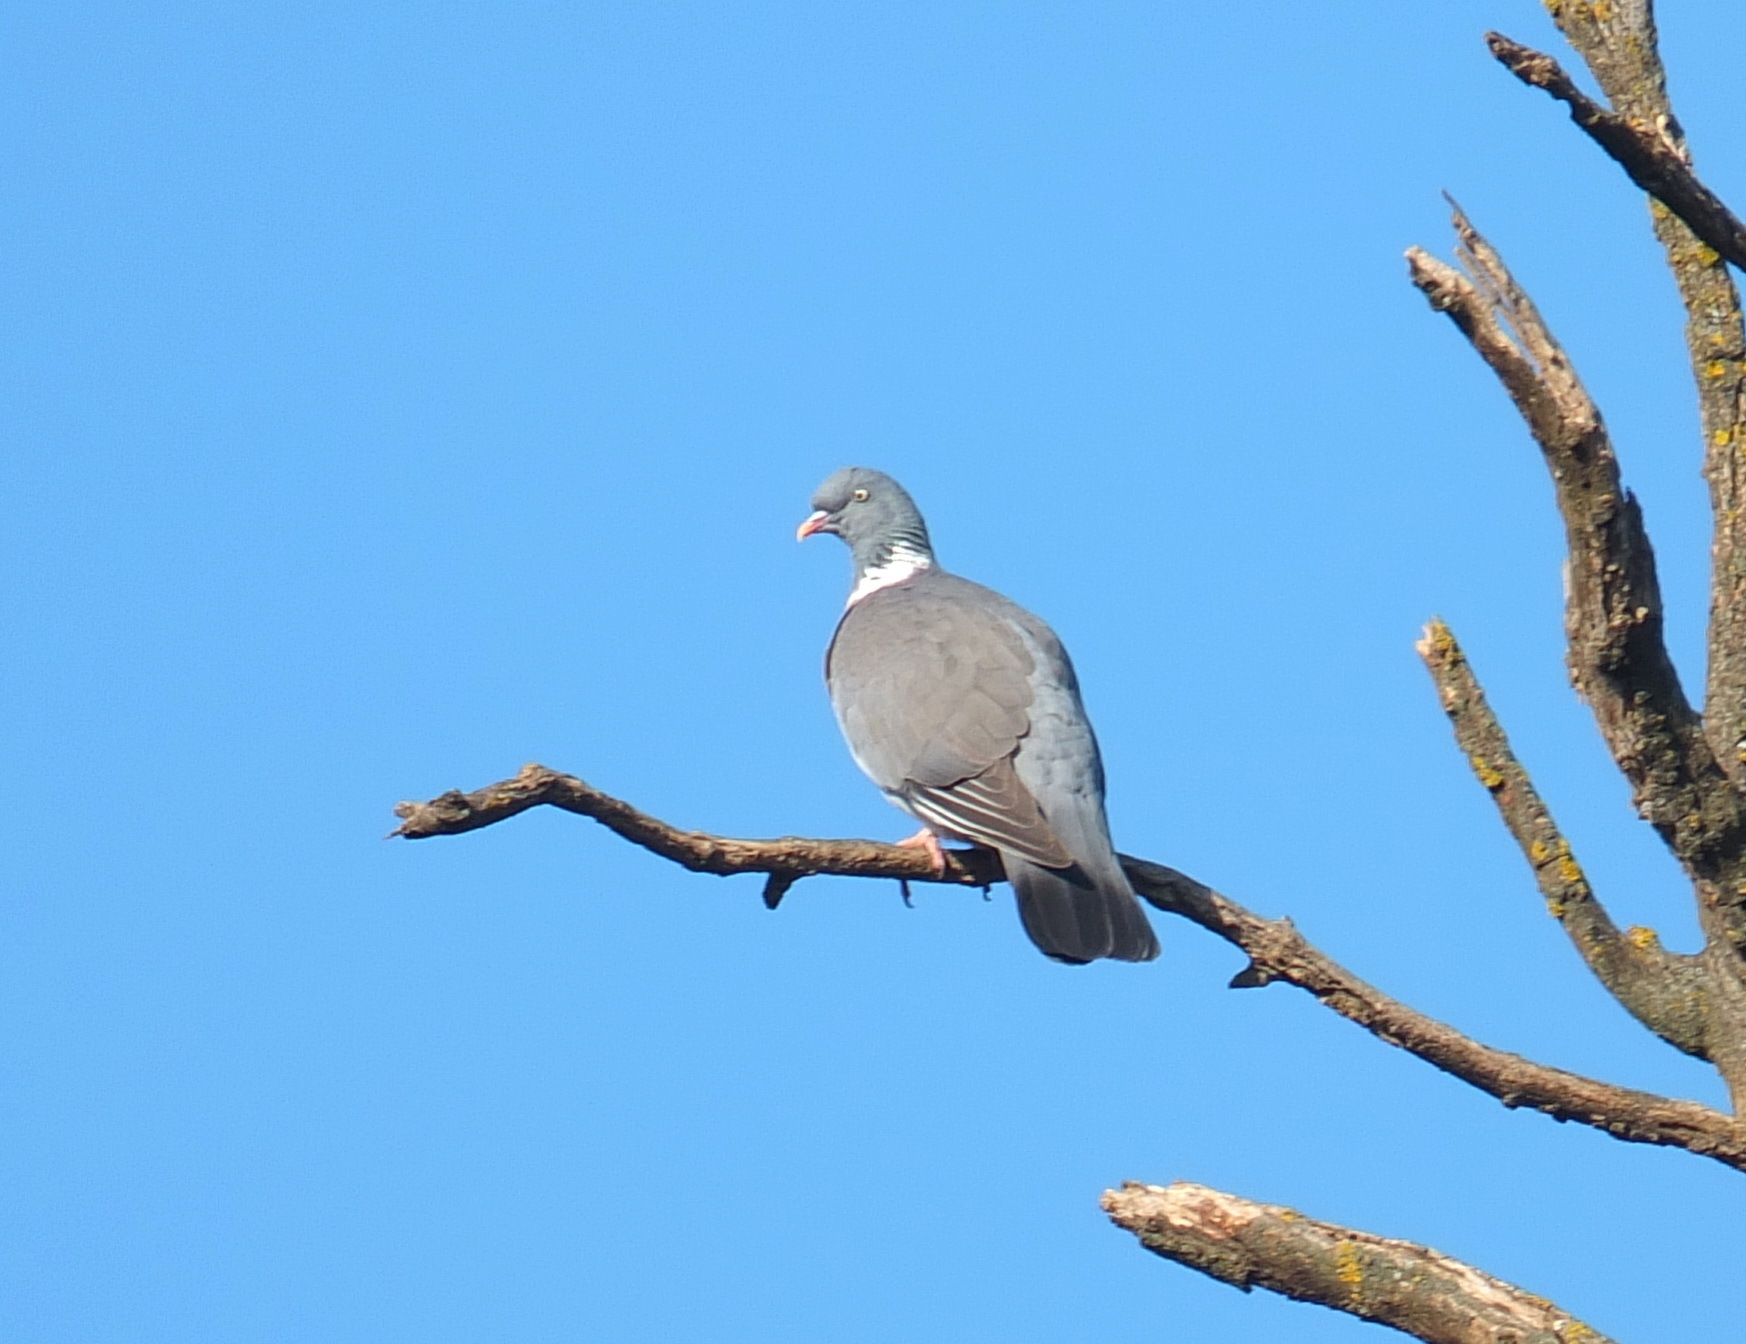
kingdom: Animalia
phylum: Chordata
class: Aves
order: Columbiformes
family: Columbidae
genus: Columba
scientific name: Columba palumbus
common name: Common wood pigeon
